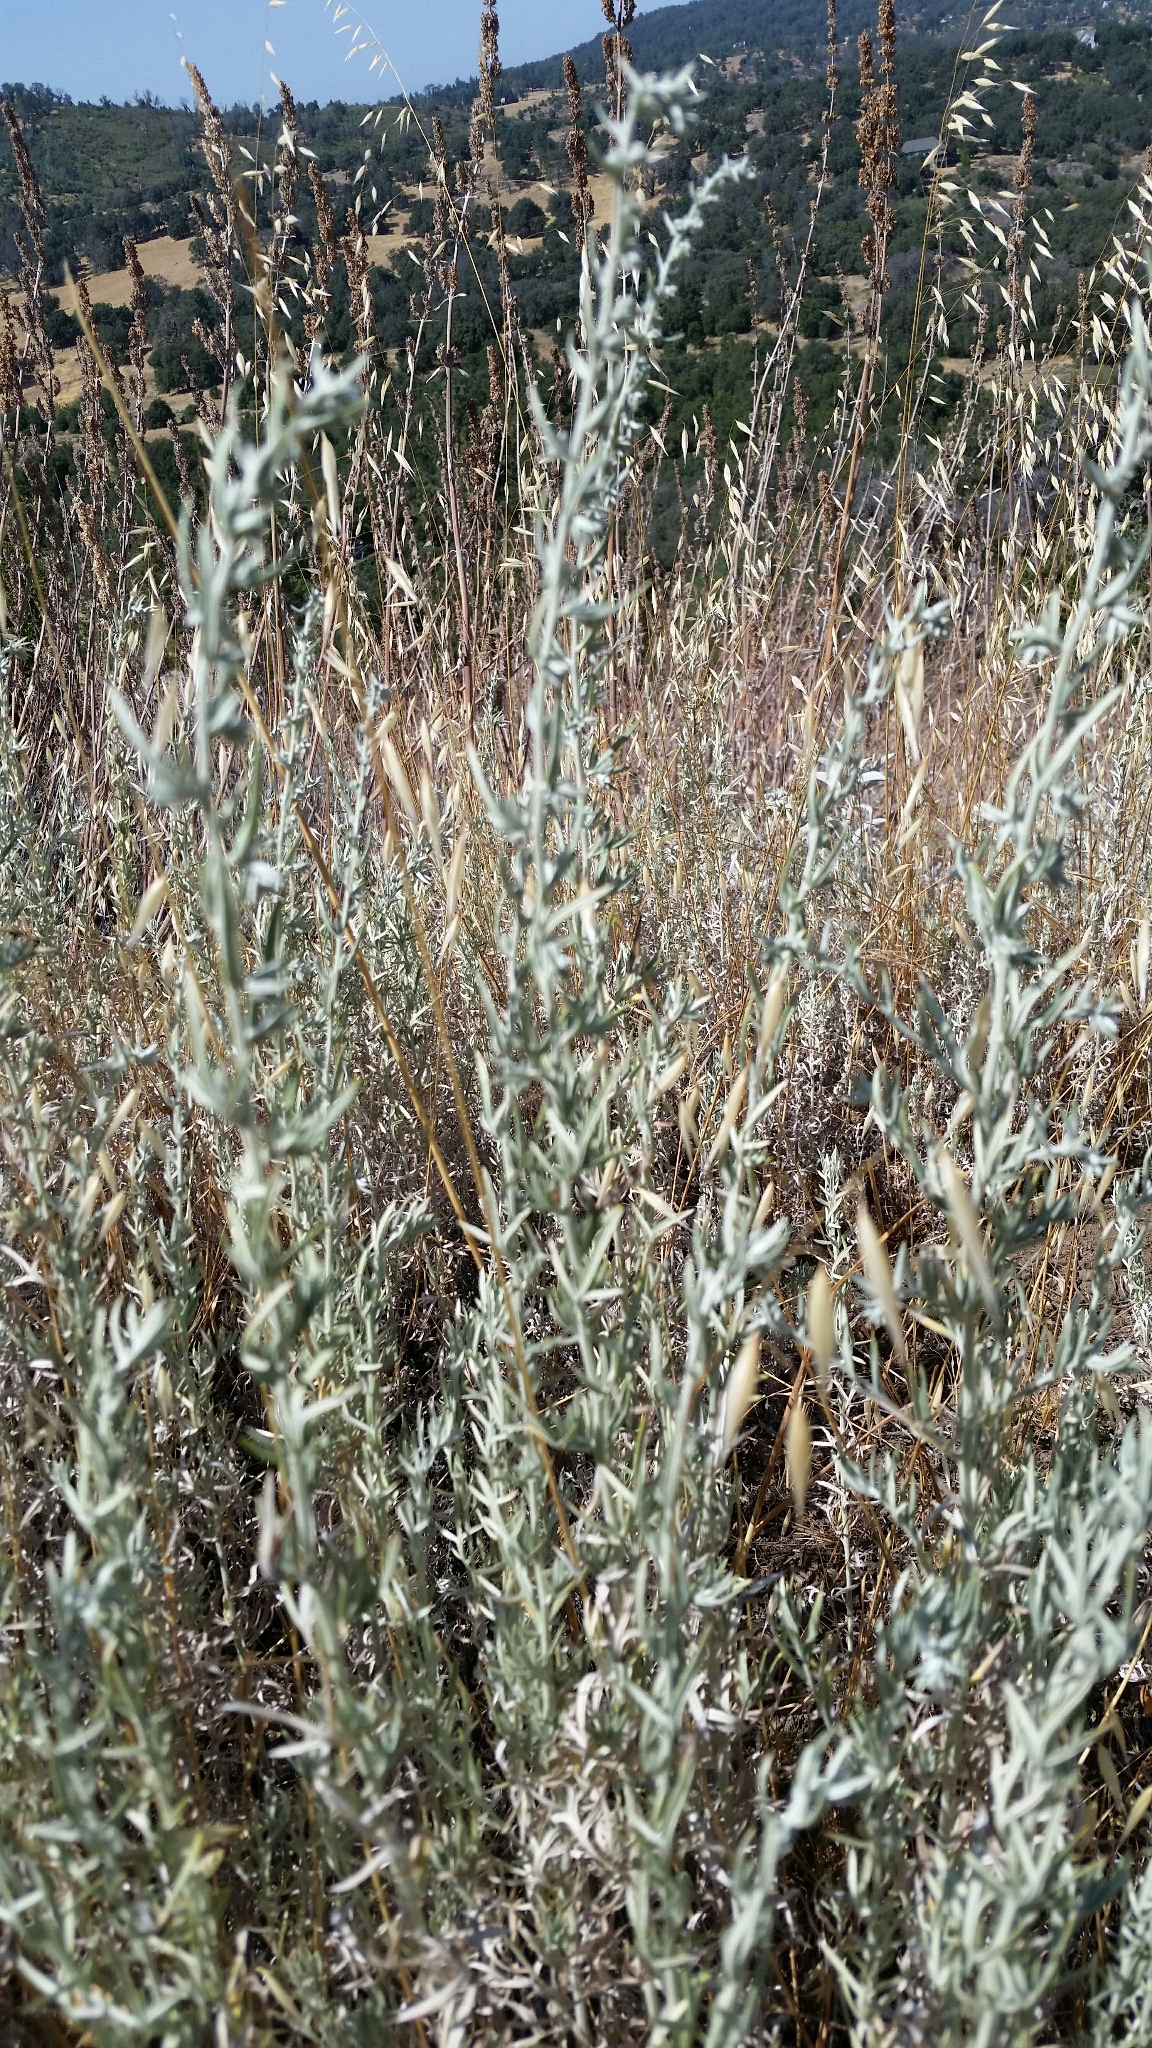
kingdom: Plantae
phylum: Tracheophyta
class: Magnoliopsida
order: Asterales
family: Asteraceae
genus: Artemisia
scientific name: Artemisia ludoviciana
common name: Western mugwort
